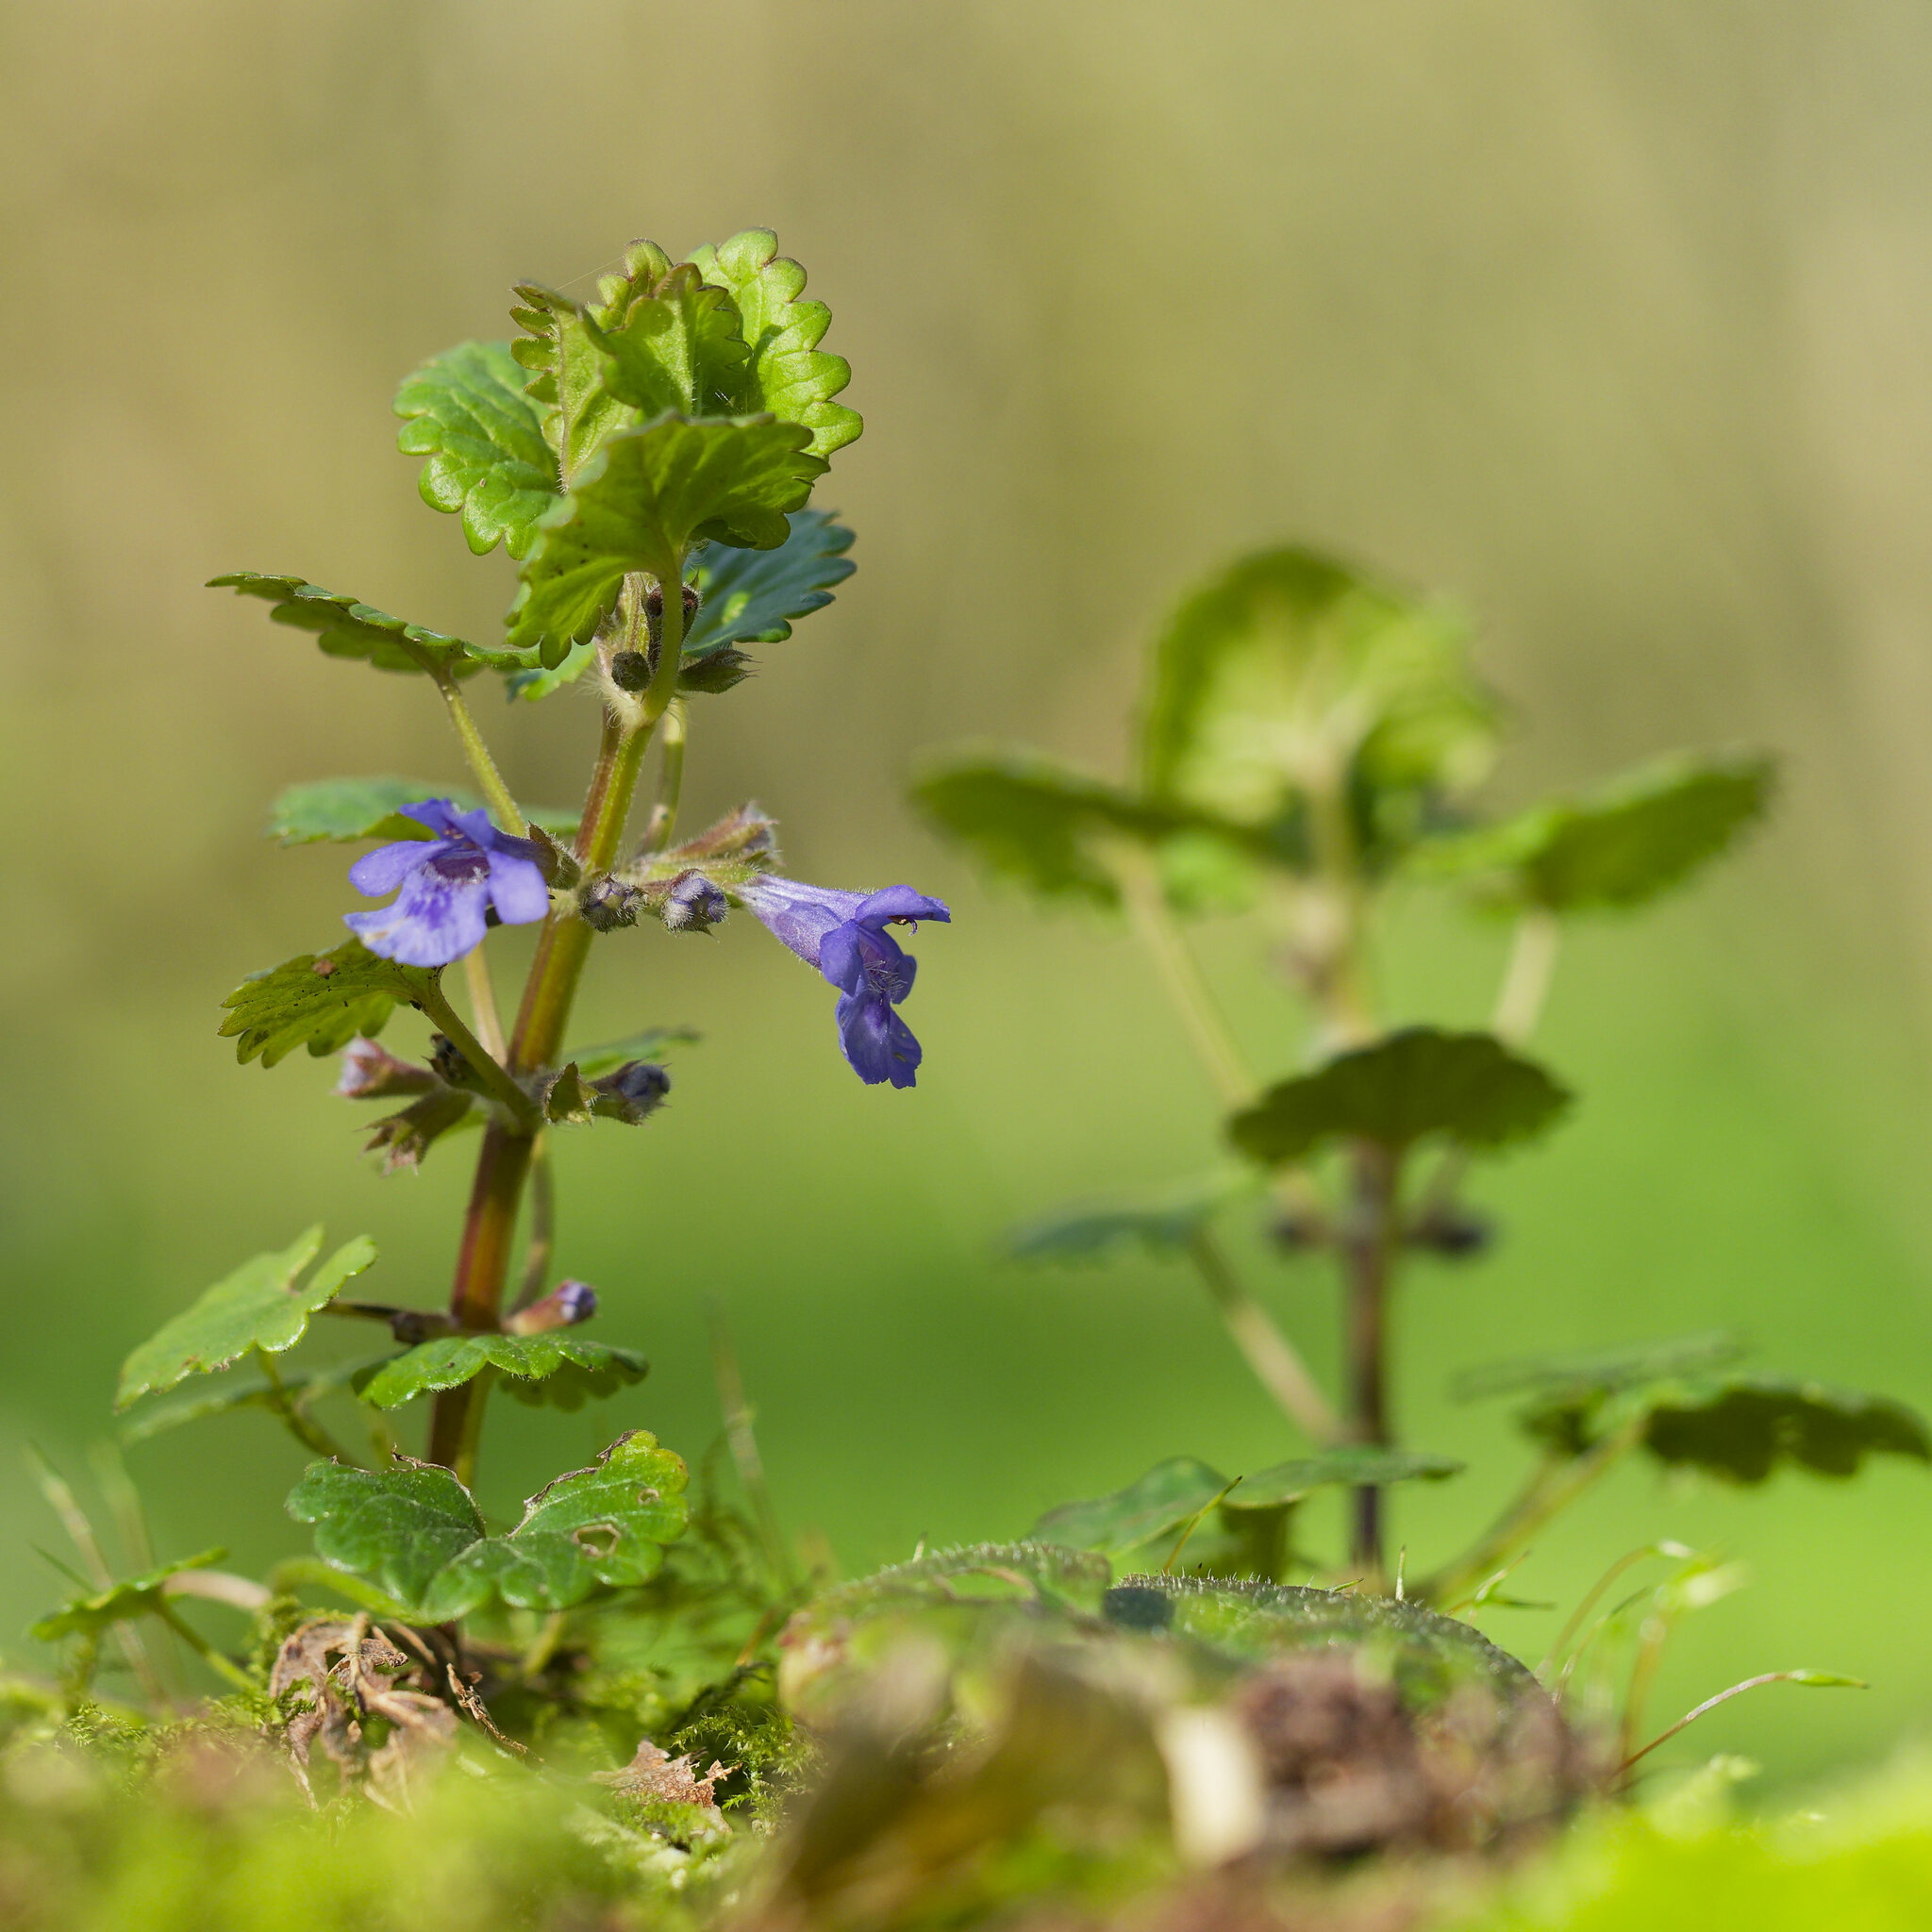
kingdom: Plantae
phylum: Tracheophyta
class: Magnoliopsida
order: Lamiales
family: Lamiaceae
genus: Glechoma
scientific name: Glechoma hederacea
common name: Ground ivy
